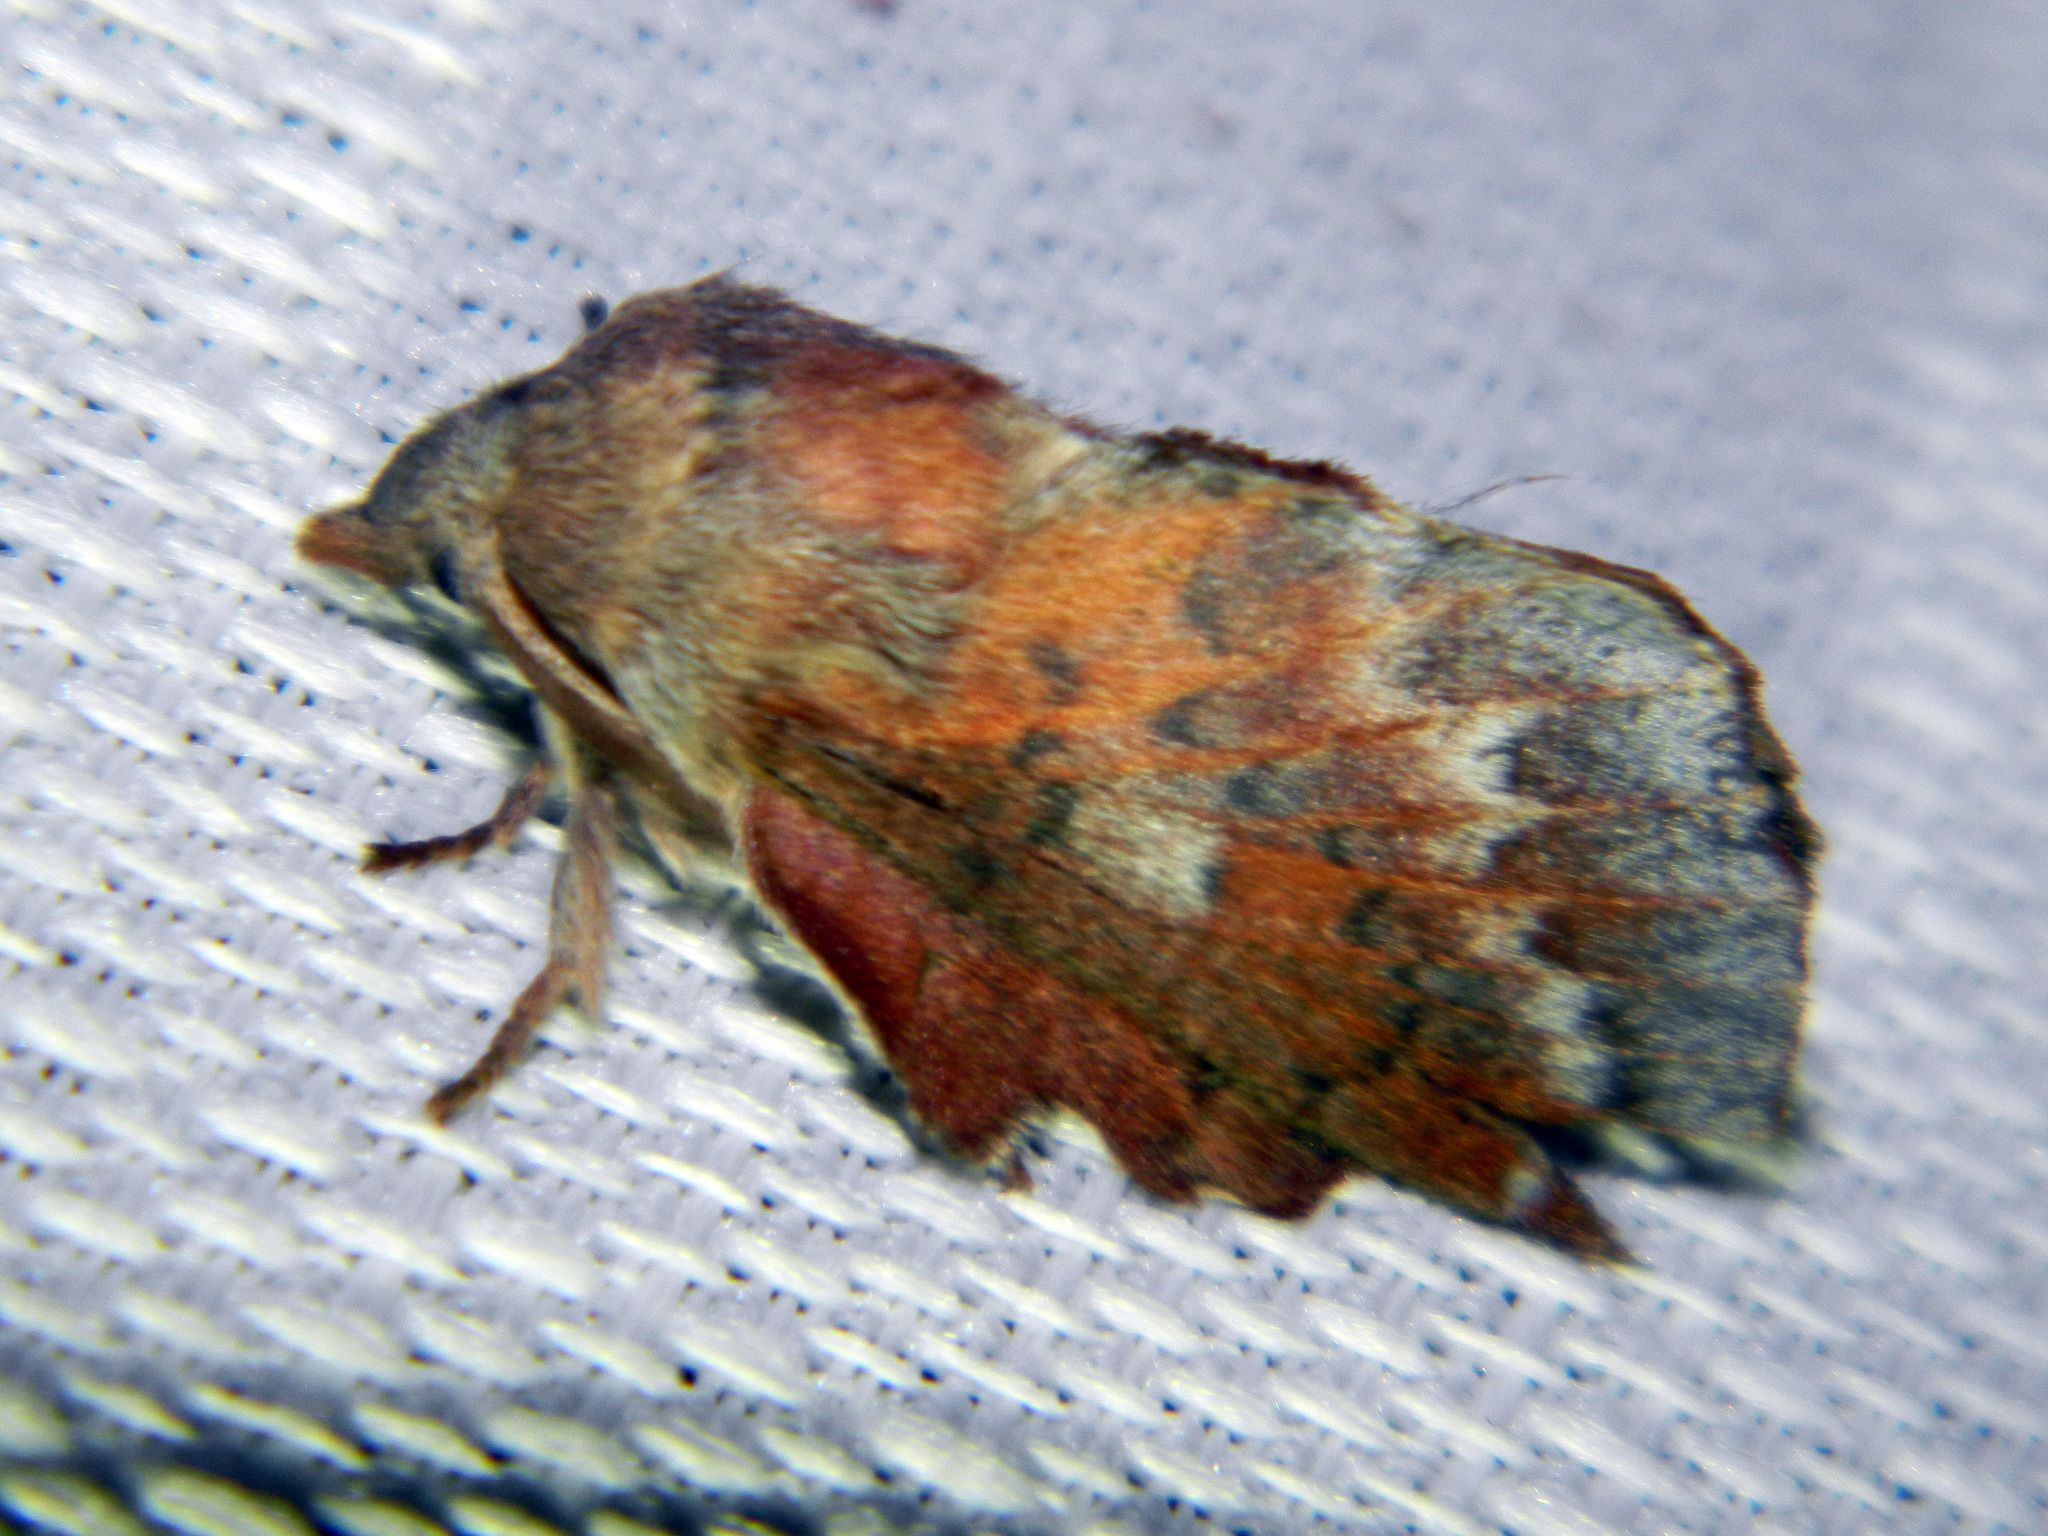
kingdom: Animalia
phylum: Arthropoda
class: Insecta
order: Lepidoptera
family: Lasiocampidae
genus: Phyllodesma
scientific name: Phyllodesma americana
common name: American lappet moth
